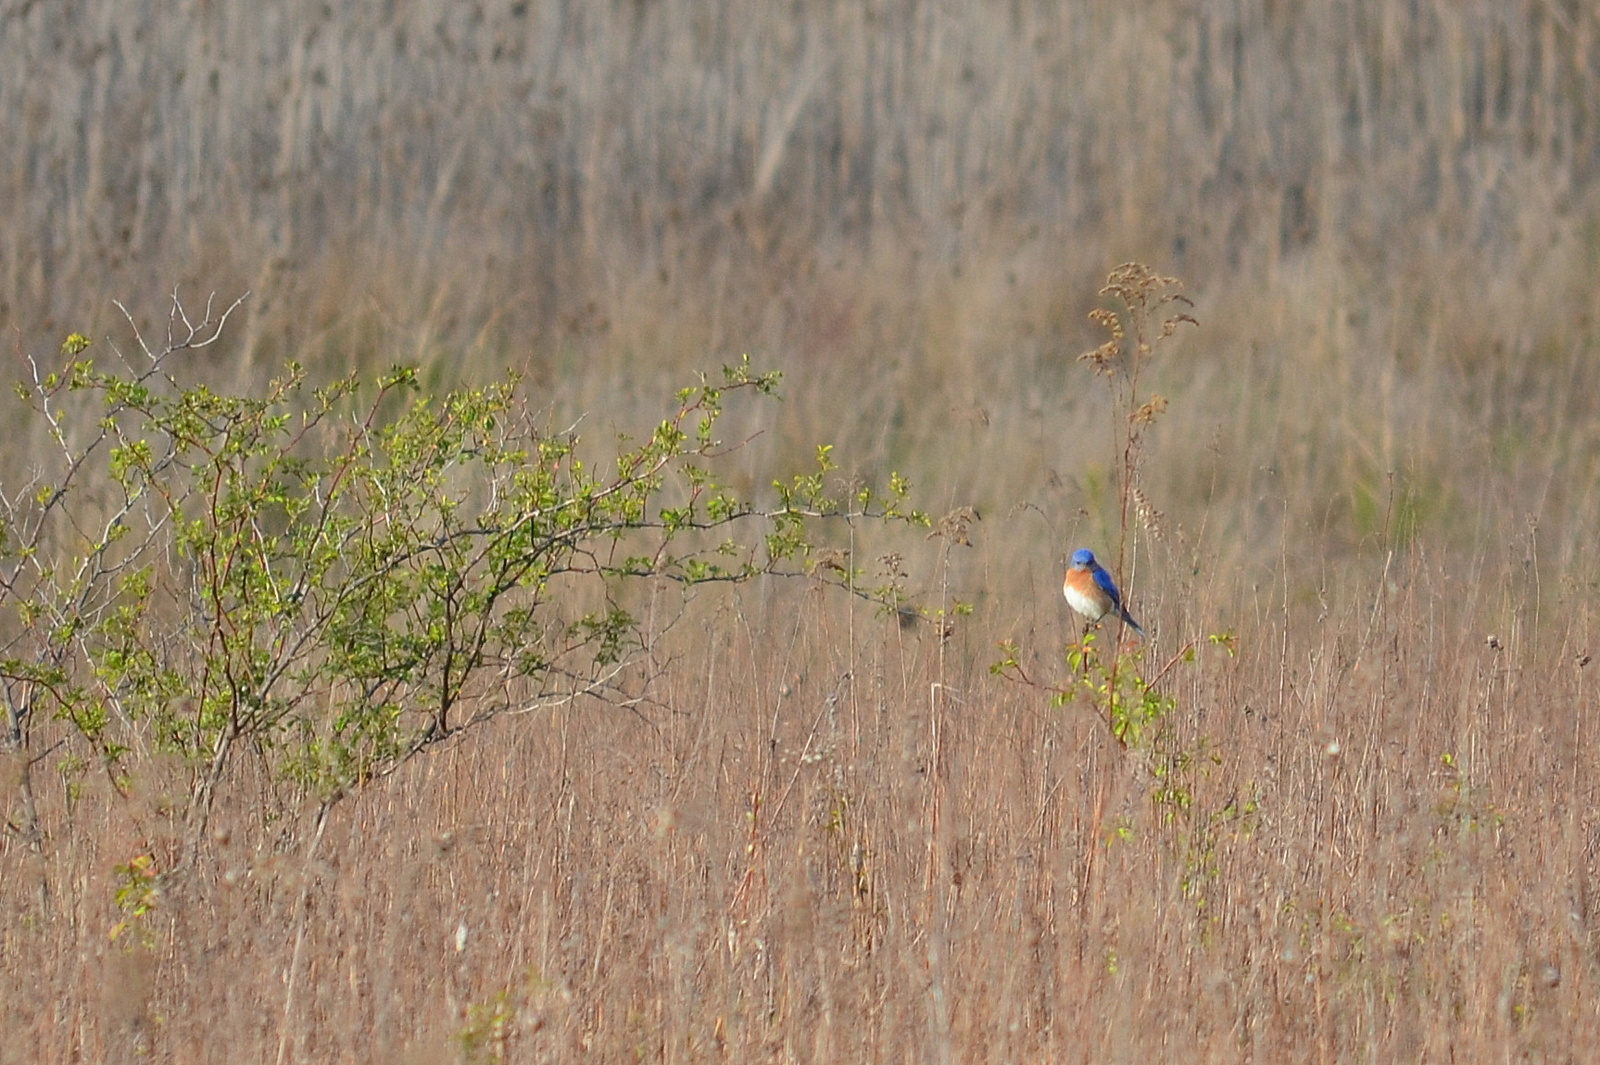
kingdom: Animalia
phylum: Chordata
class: Aves
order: Passeriformes
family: Turdidae
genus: Sialia
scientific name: Sialia sialis
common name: Eastern bluebird
